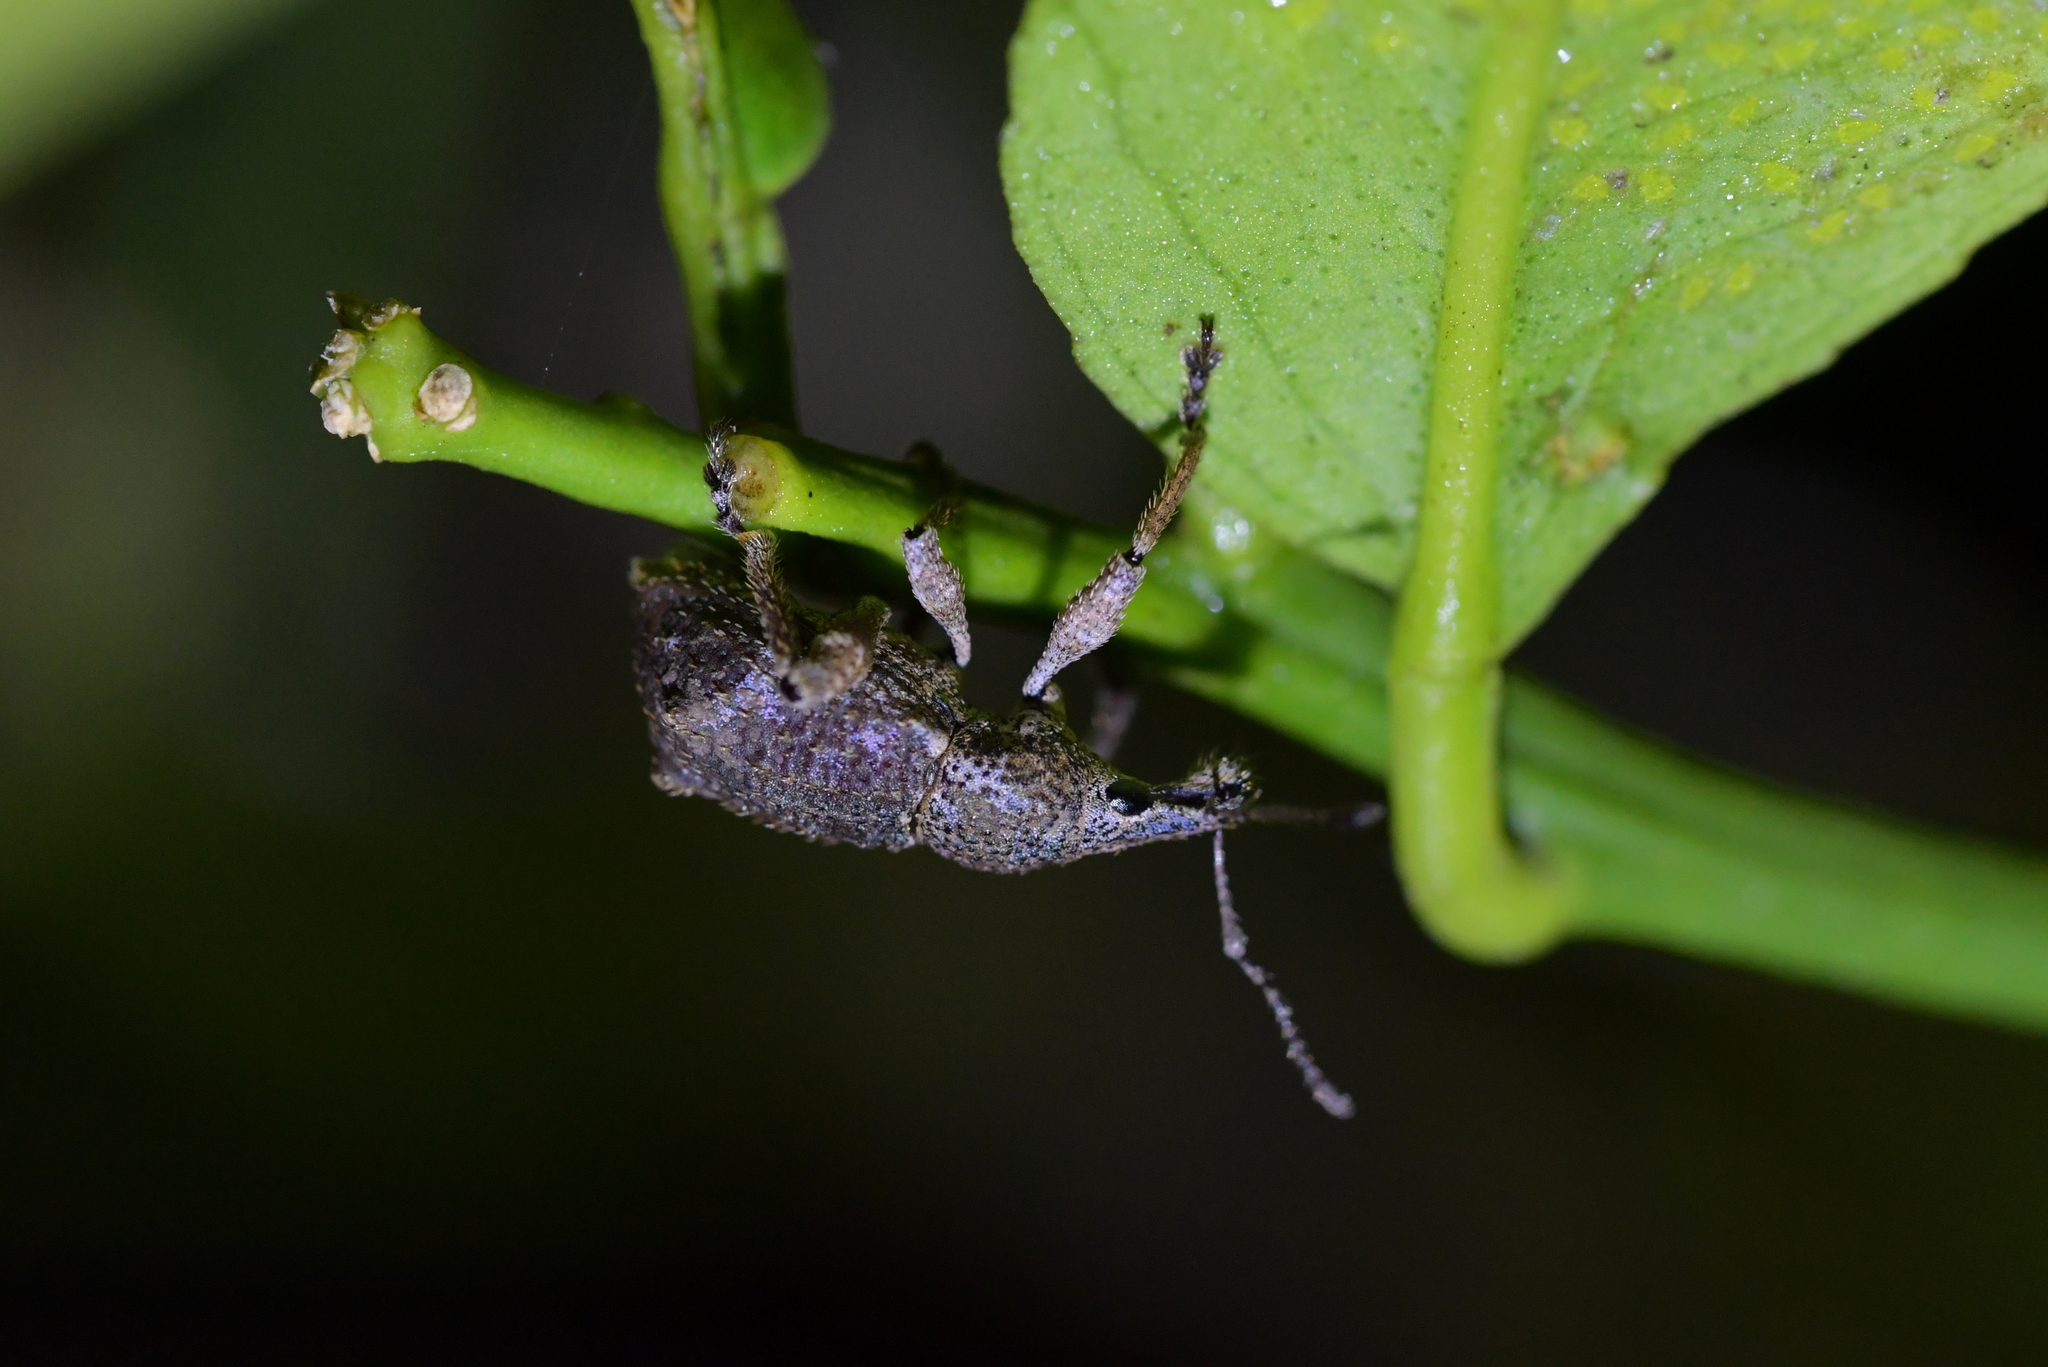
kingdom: Animalia
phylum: Arthropoda
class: Insecta
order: Coleoptera
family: Curculionidae
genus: Catoptes
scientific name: Catoptes binodis
